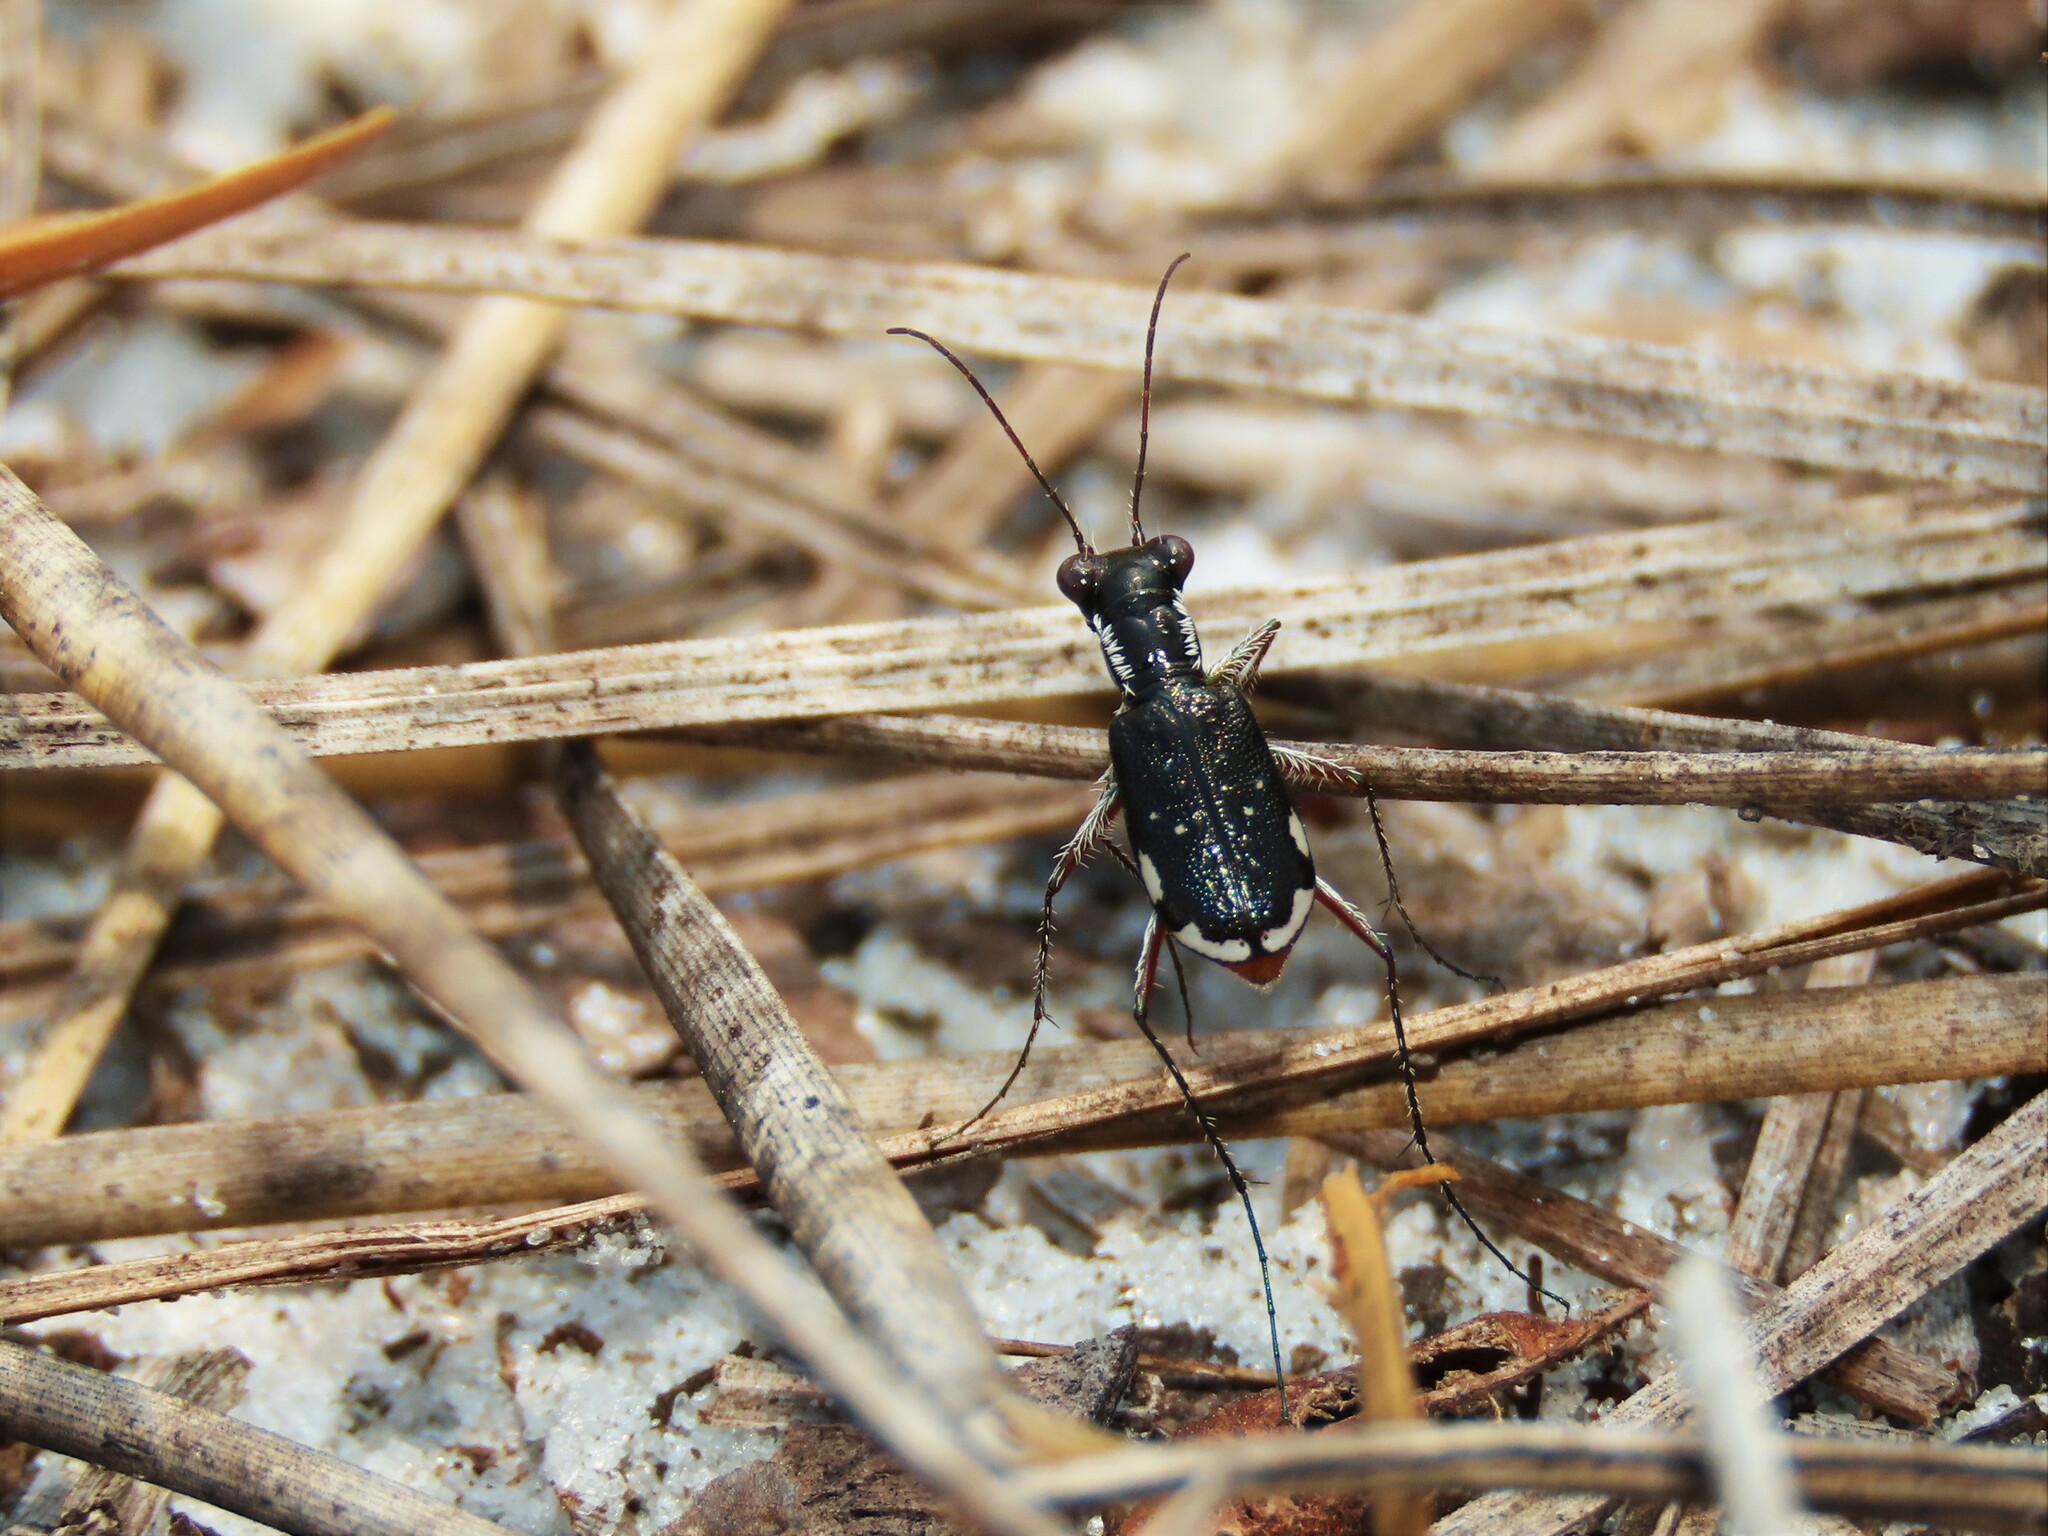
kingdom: Animalia
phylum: Arthropoda
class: Insecta
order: Coleoptera
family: Carabidae
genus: Cicindela
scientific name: Cicindela scabrosa
